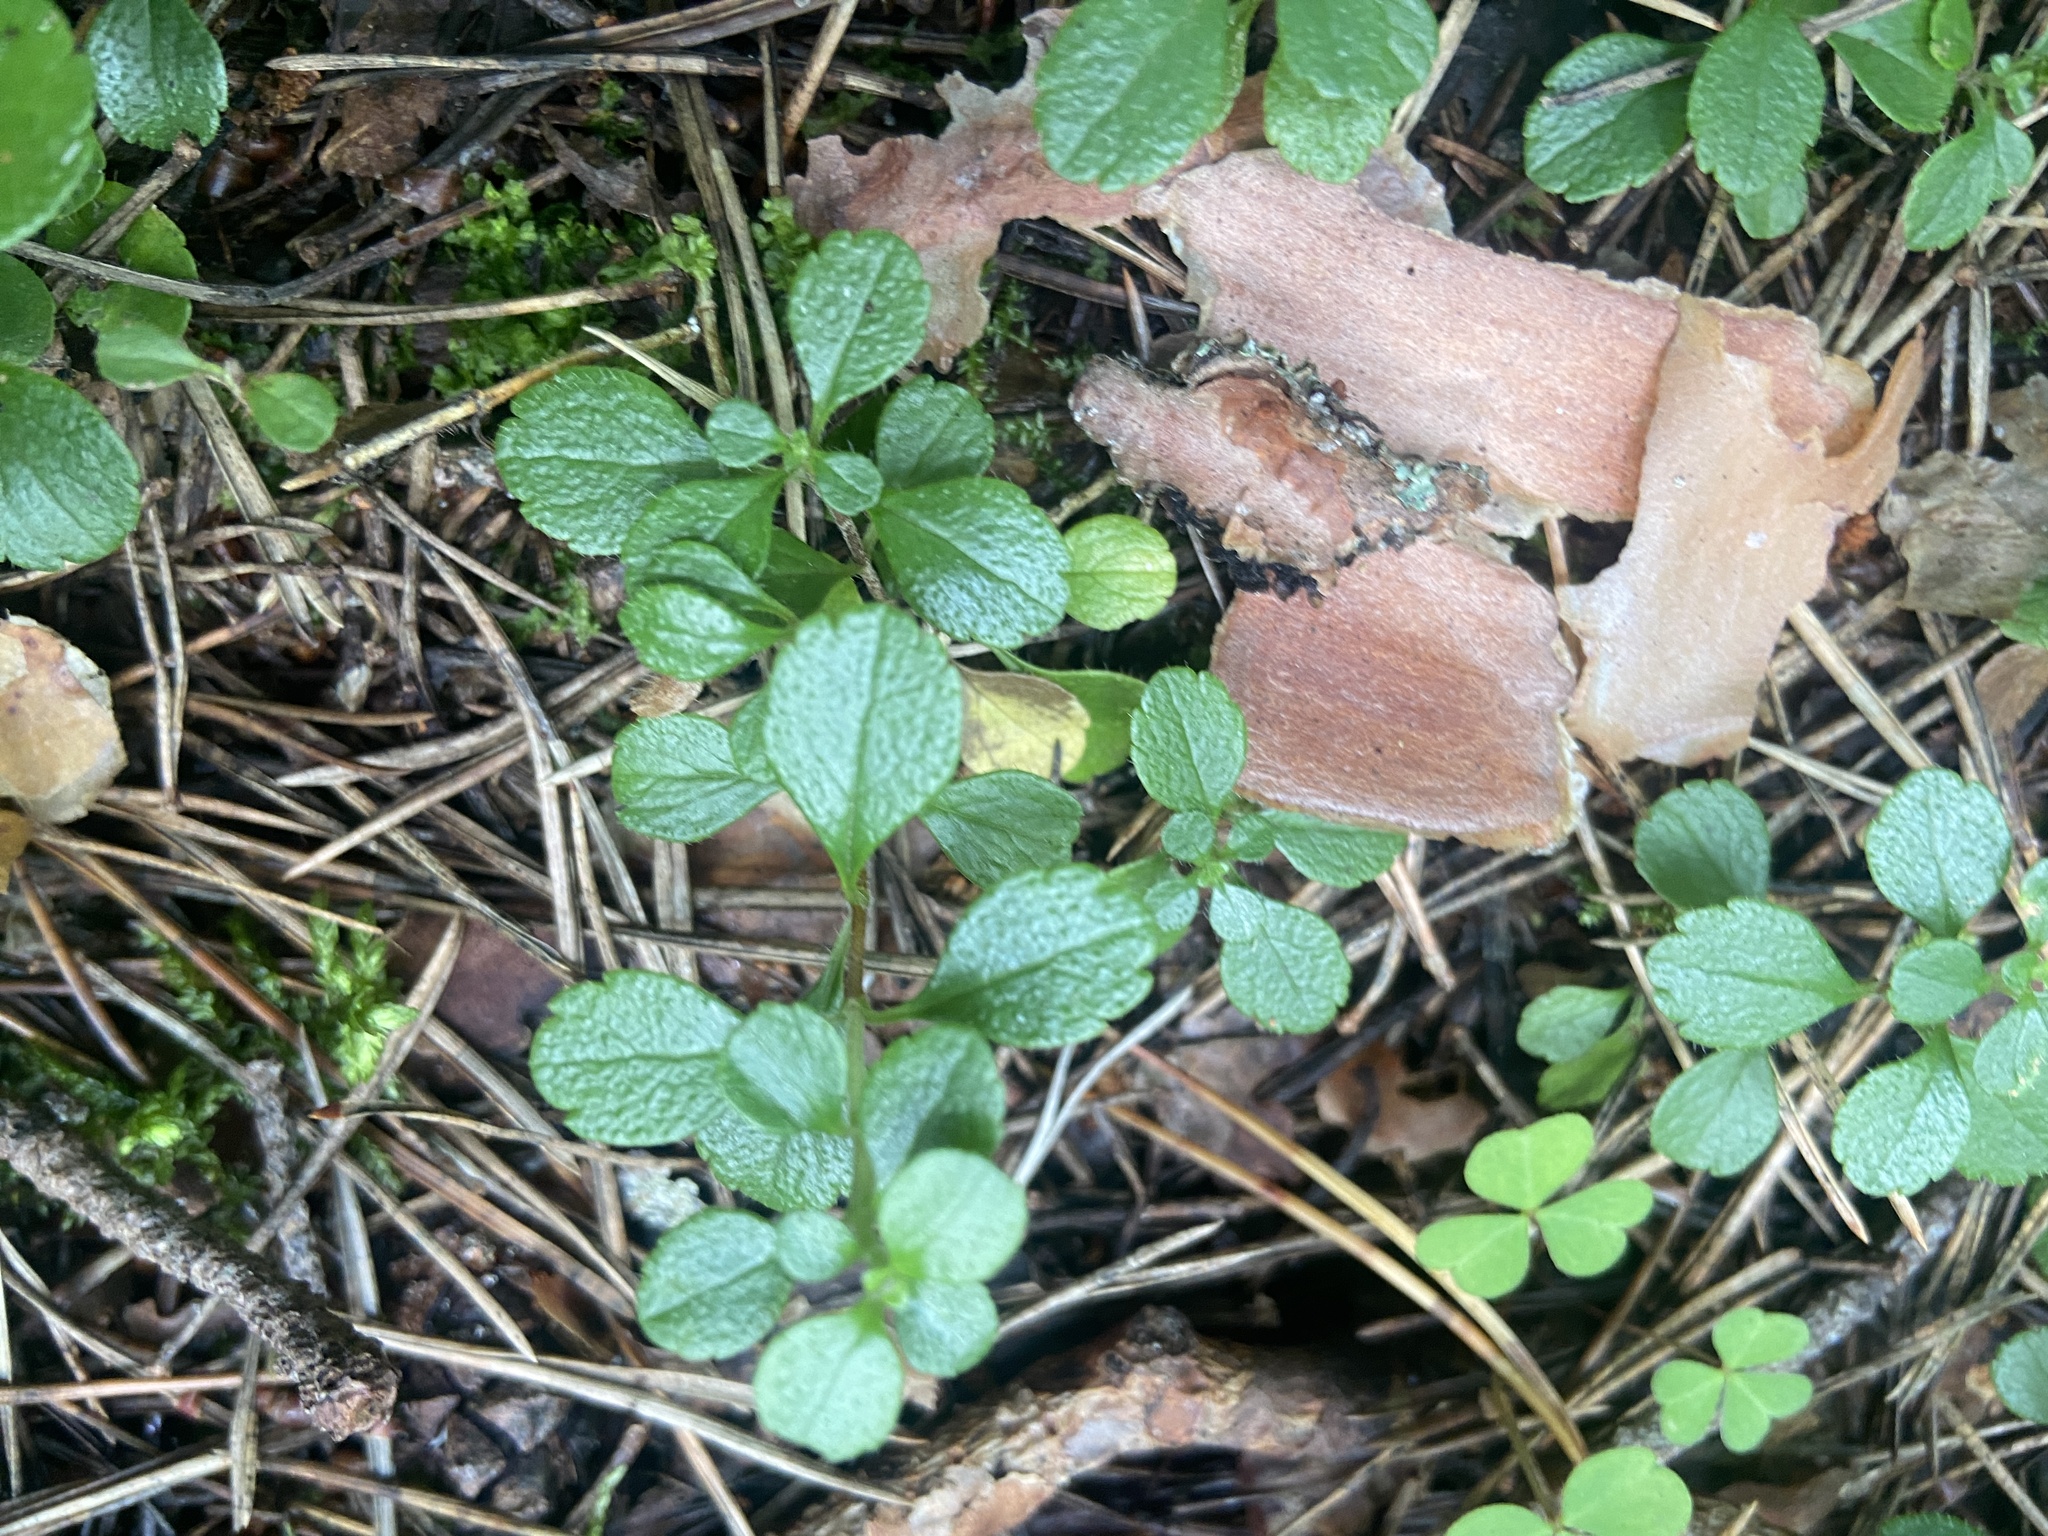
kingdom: Plantae
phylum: Tracheophyta
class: Magnoliopsida
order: Dipsacales
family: Caprifoliaceae
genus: Linnaea
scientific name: Linnaea borealis
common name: Twinflower
